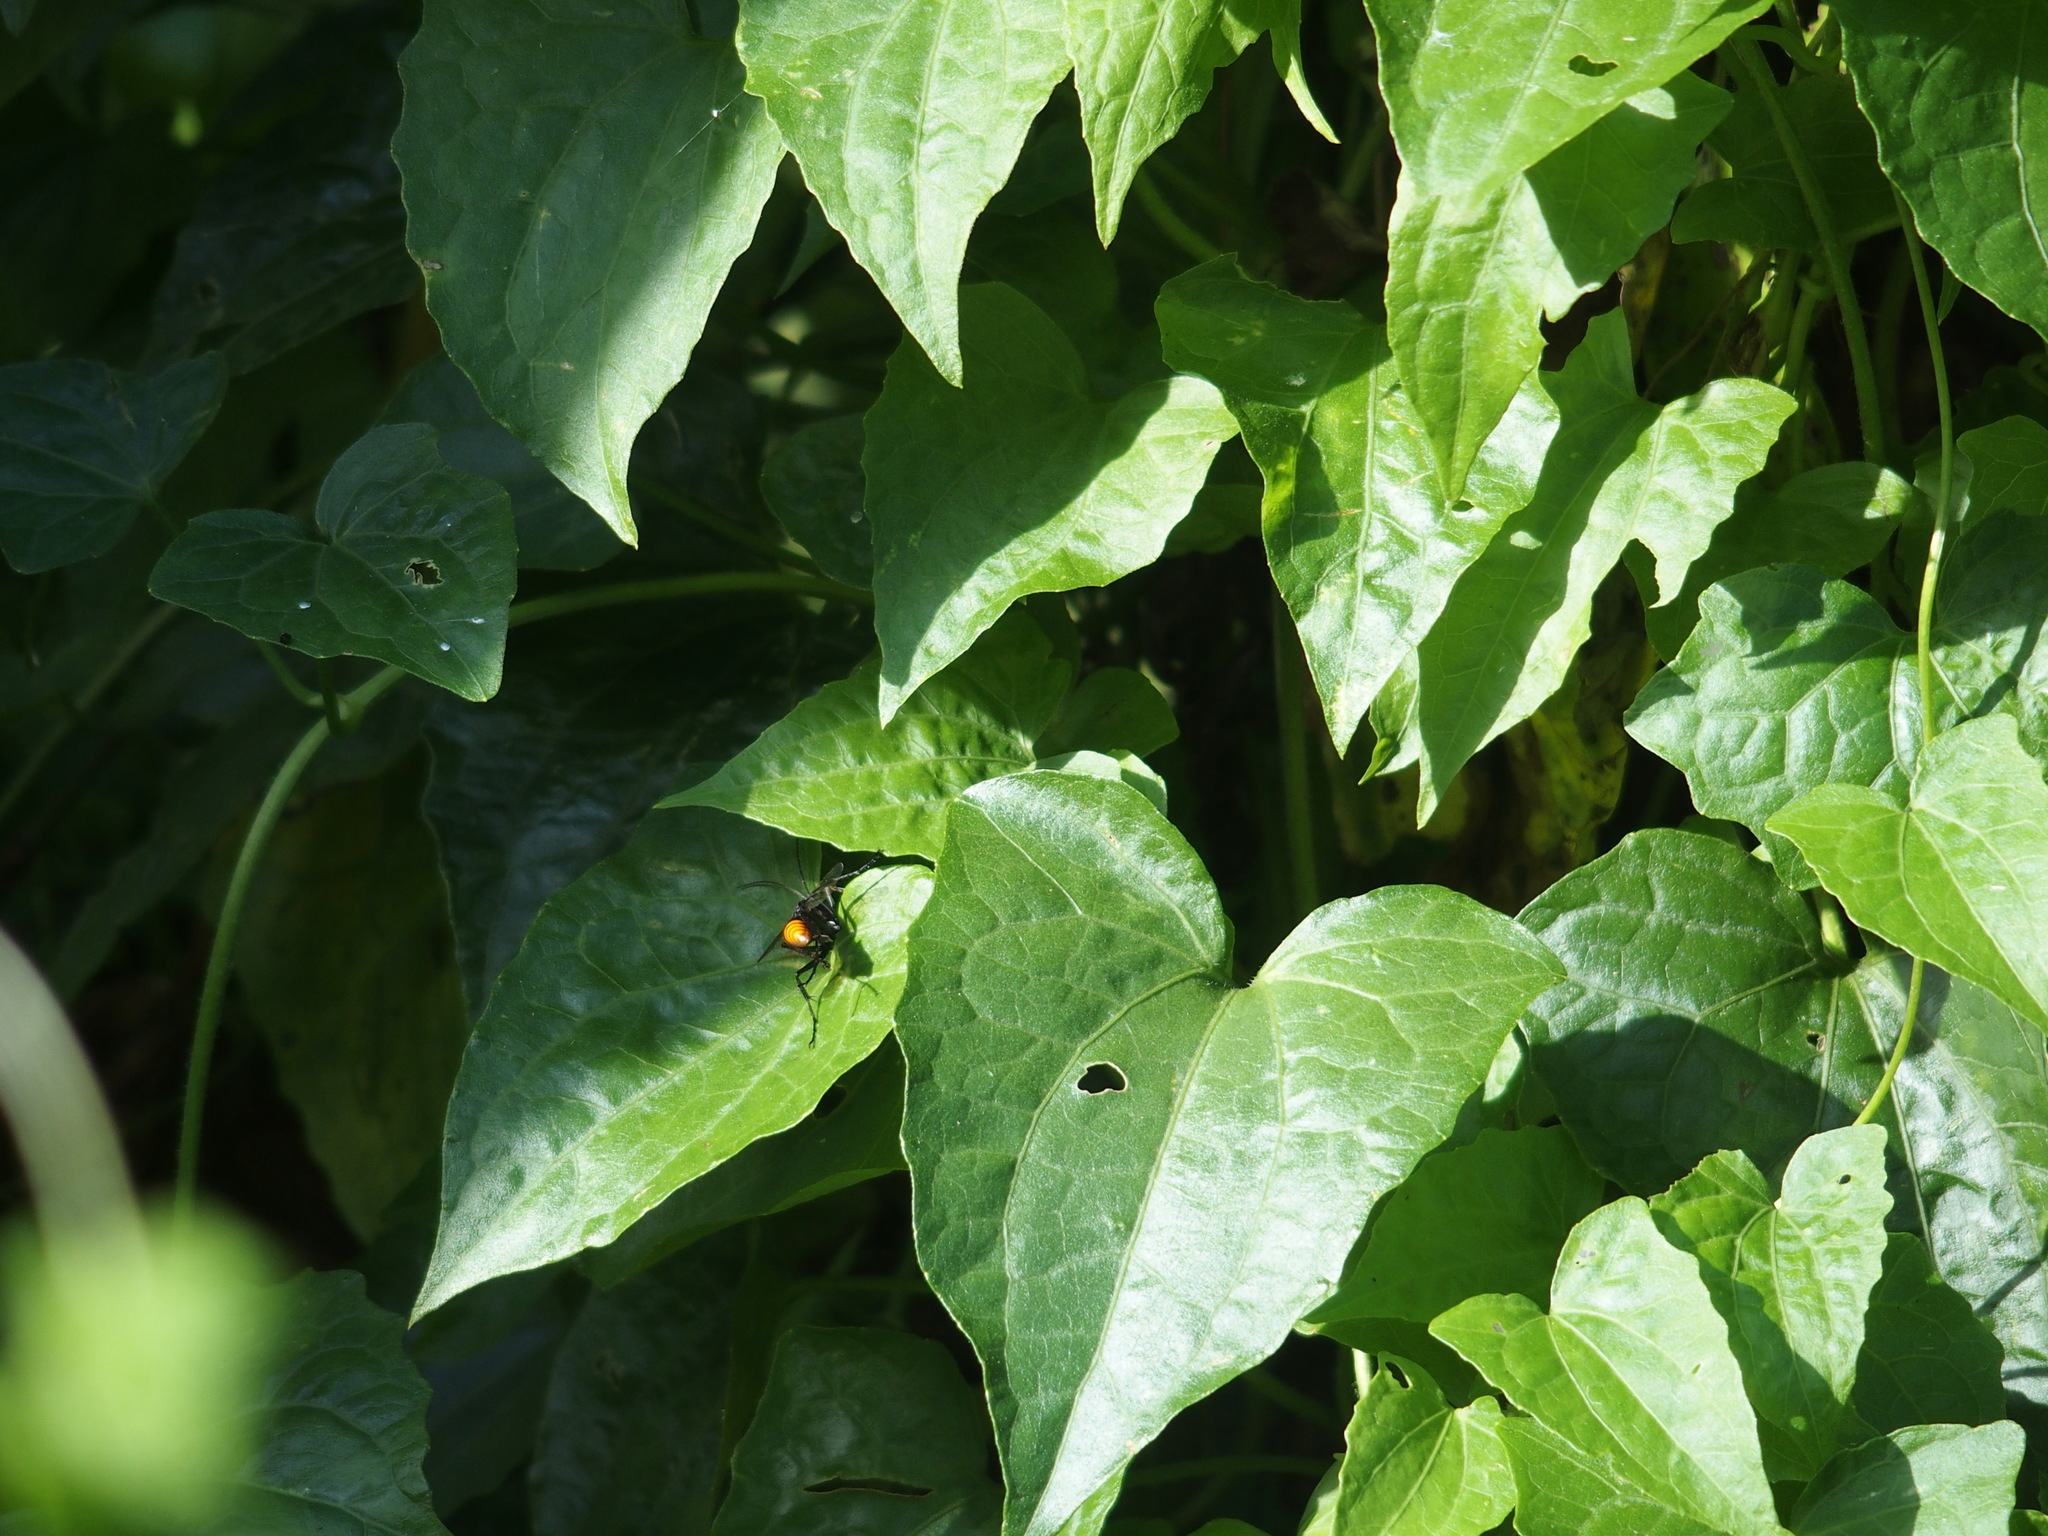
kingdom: Animalia
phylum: Arthropoda
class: Insecta
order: Hymenoptera
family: Pompilidae
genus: Tachypompilus
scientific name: Tachypompilus analis
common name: Spider wasp
